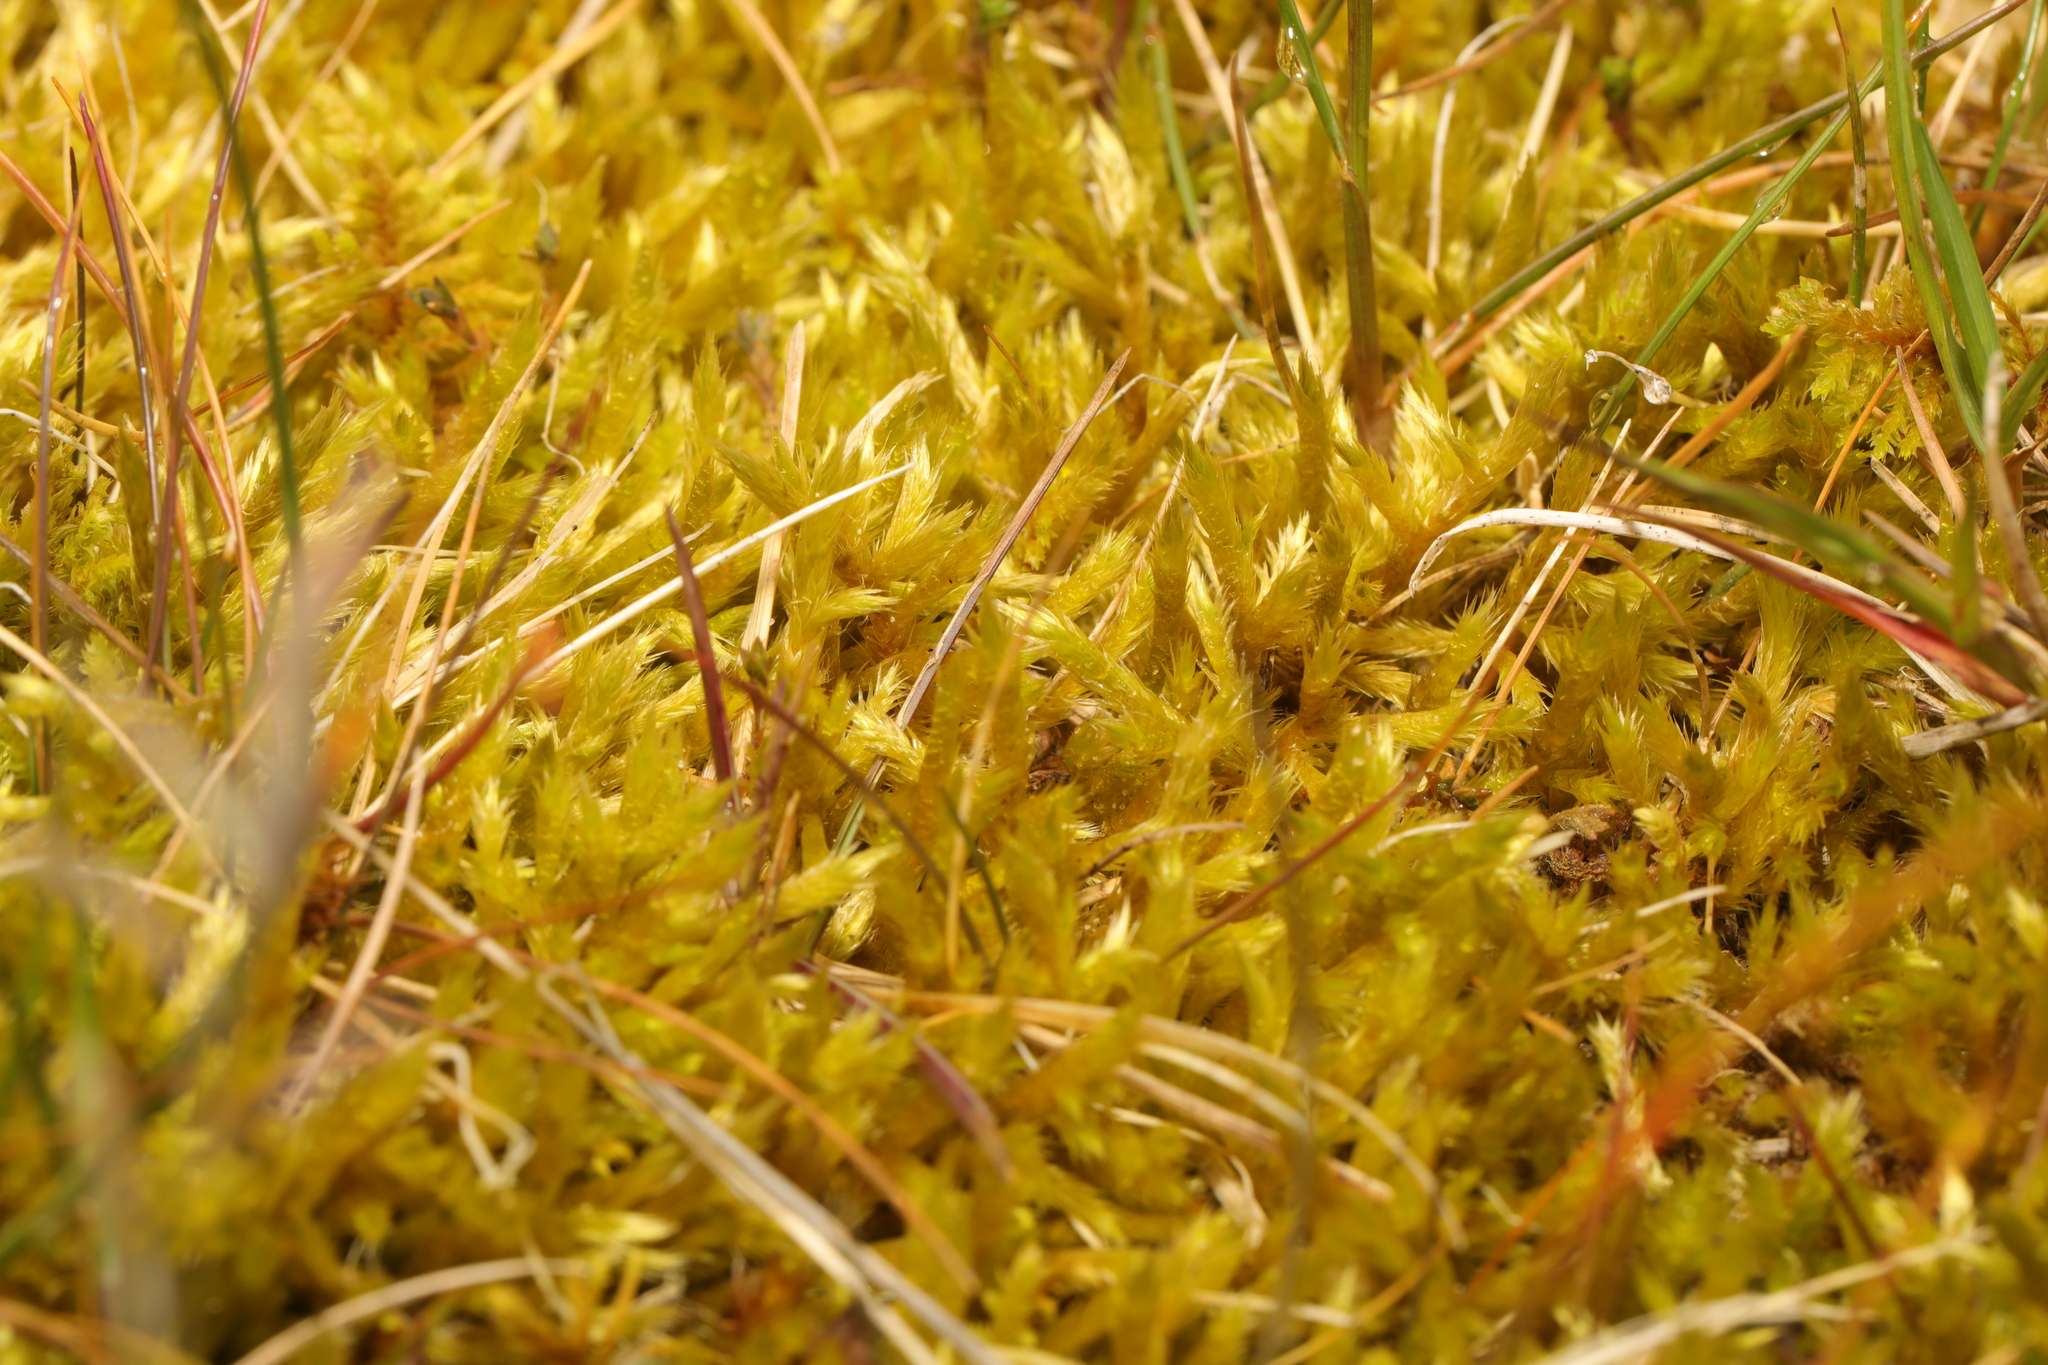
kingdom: Plantae
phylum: Bryophyta
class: Bryopsida
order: Hypnales
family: Brachytheciaceae
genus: Brachythecium
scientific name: Brachythecium albicans
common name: Whitish ragged moss
